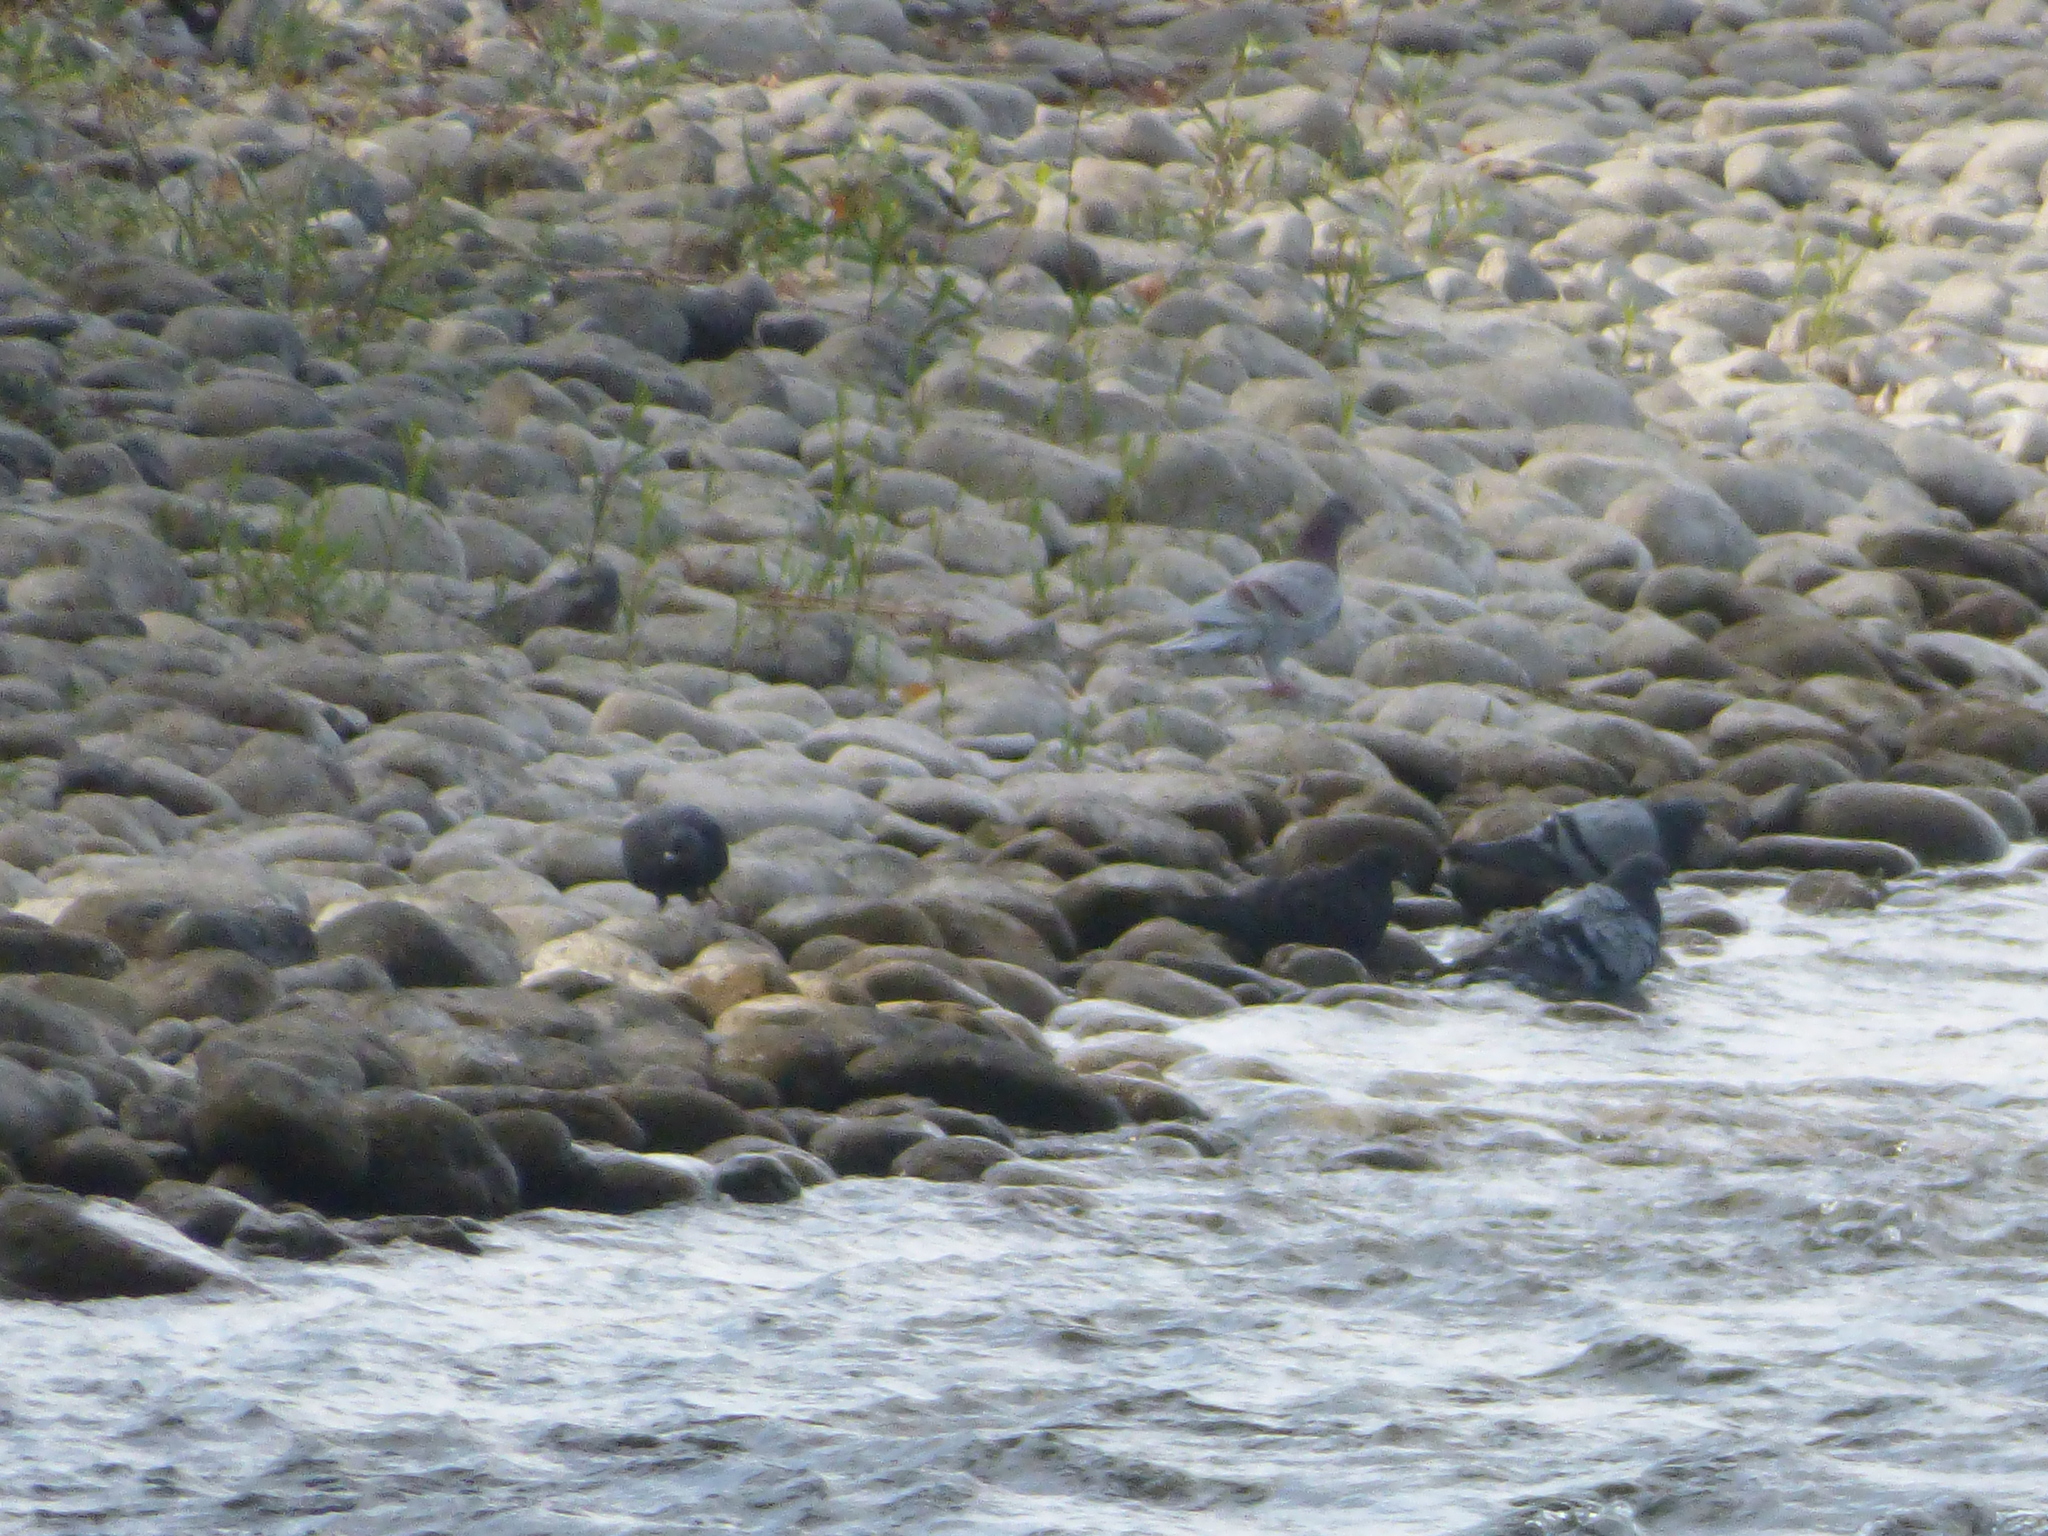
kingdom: Animalia
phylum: Chordata
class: Aves
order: Columbiformes
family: Columbidae
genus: Columba
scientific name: Columba livia
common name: Rock pigeon
